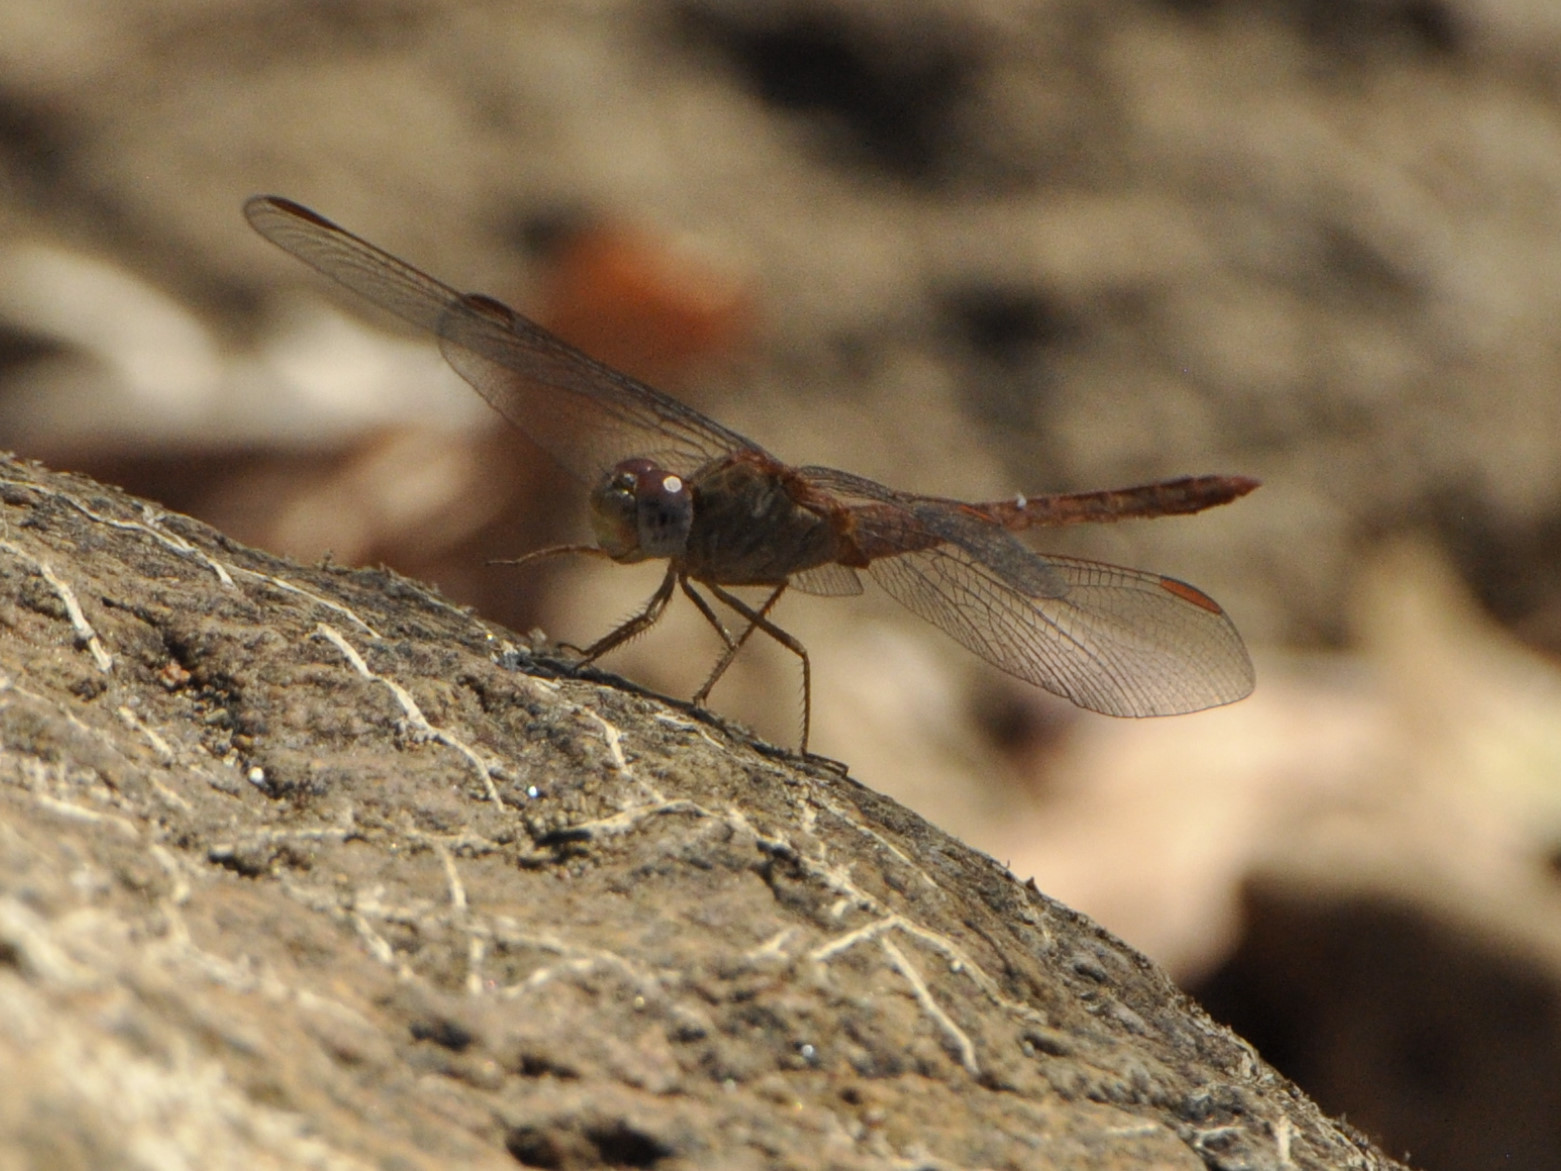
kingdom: Animalia
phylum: Arthropoda
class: Insecta
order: Odonata
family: Libellulidae
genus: Crocothemis
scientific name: Crocothemis divisa
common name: Divisa scarlet
